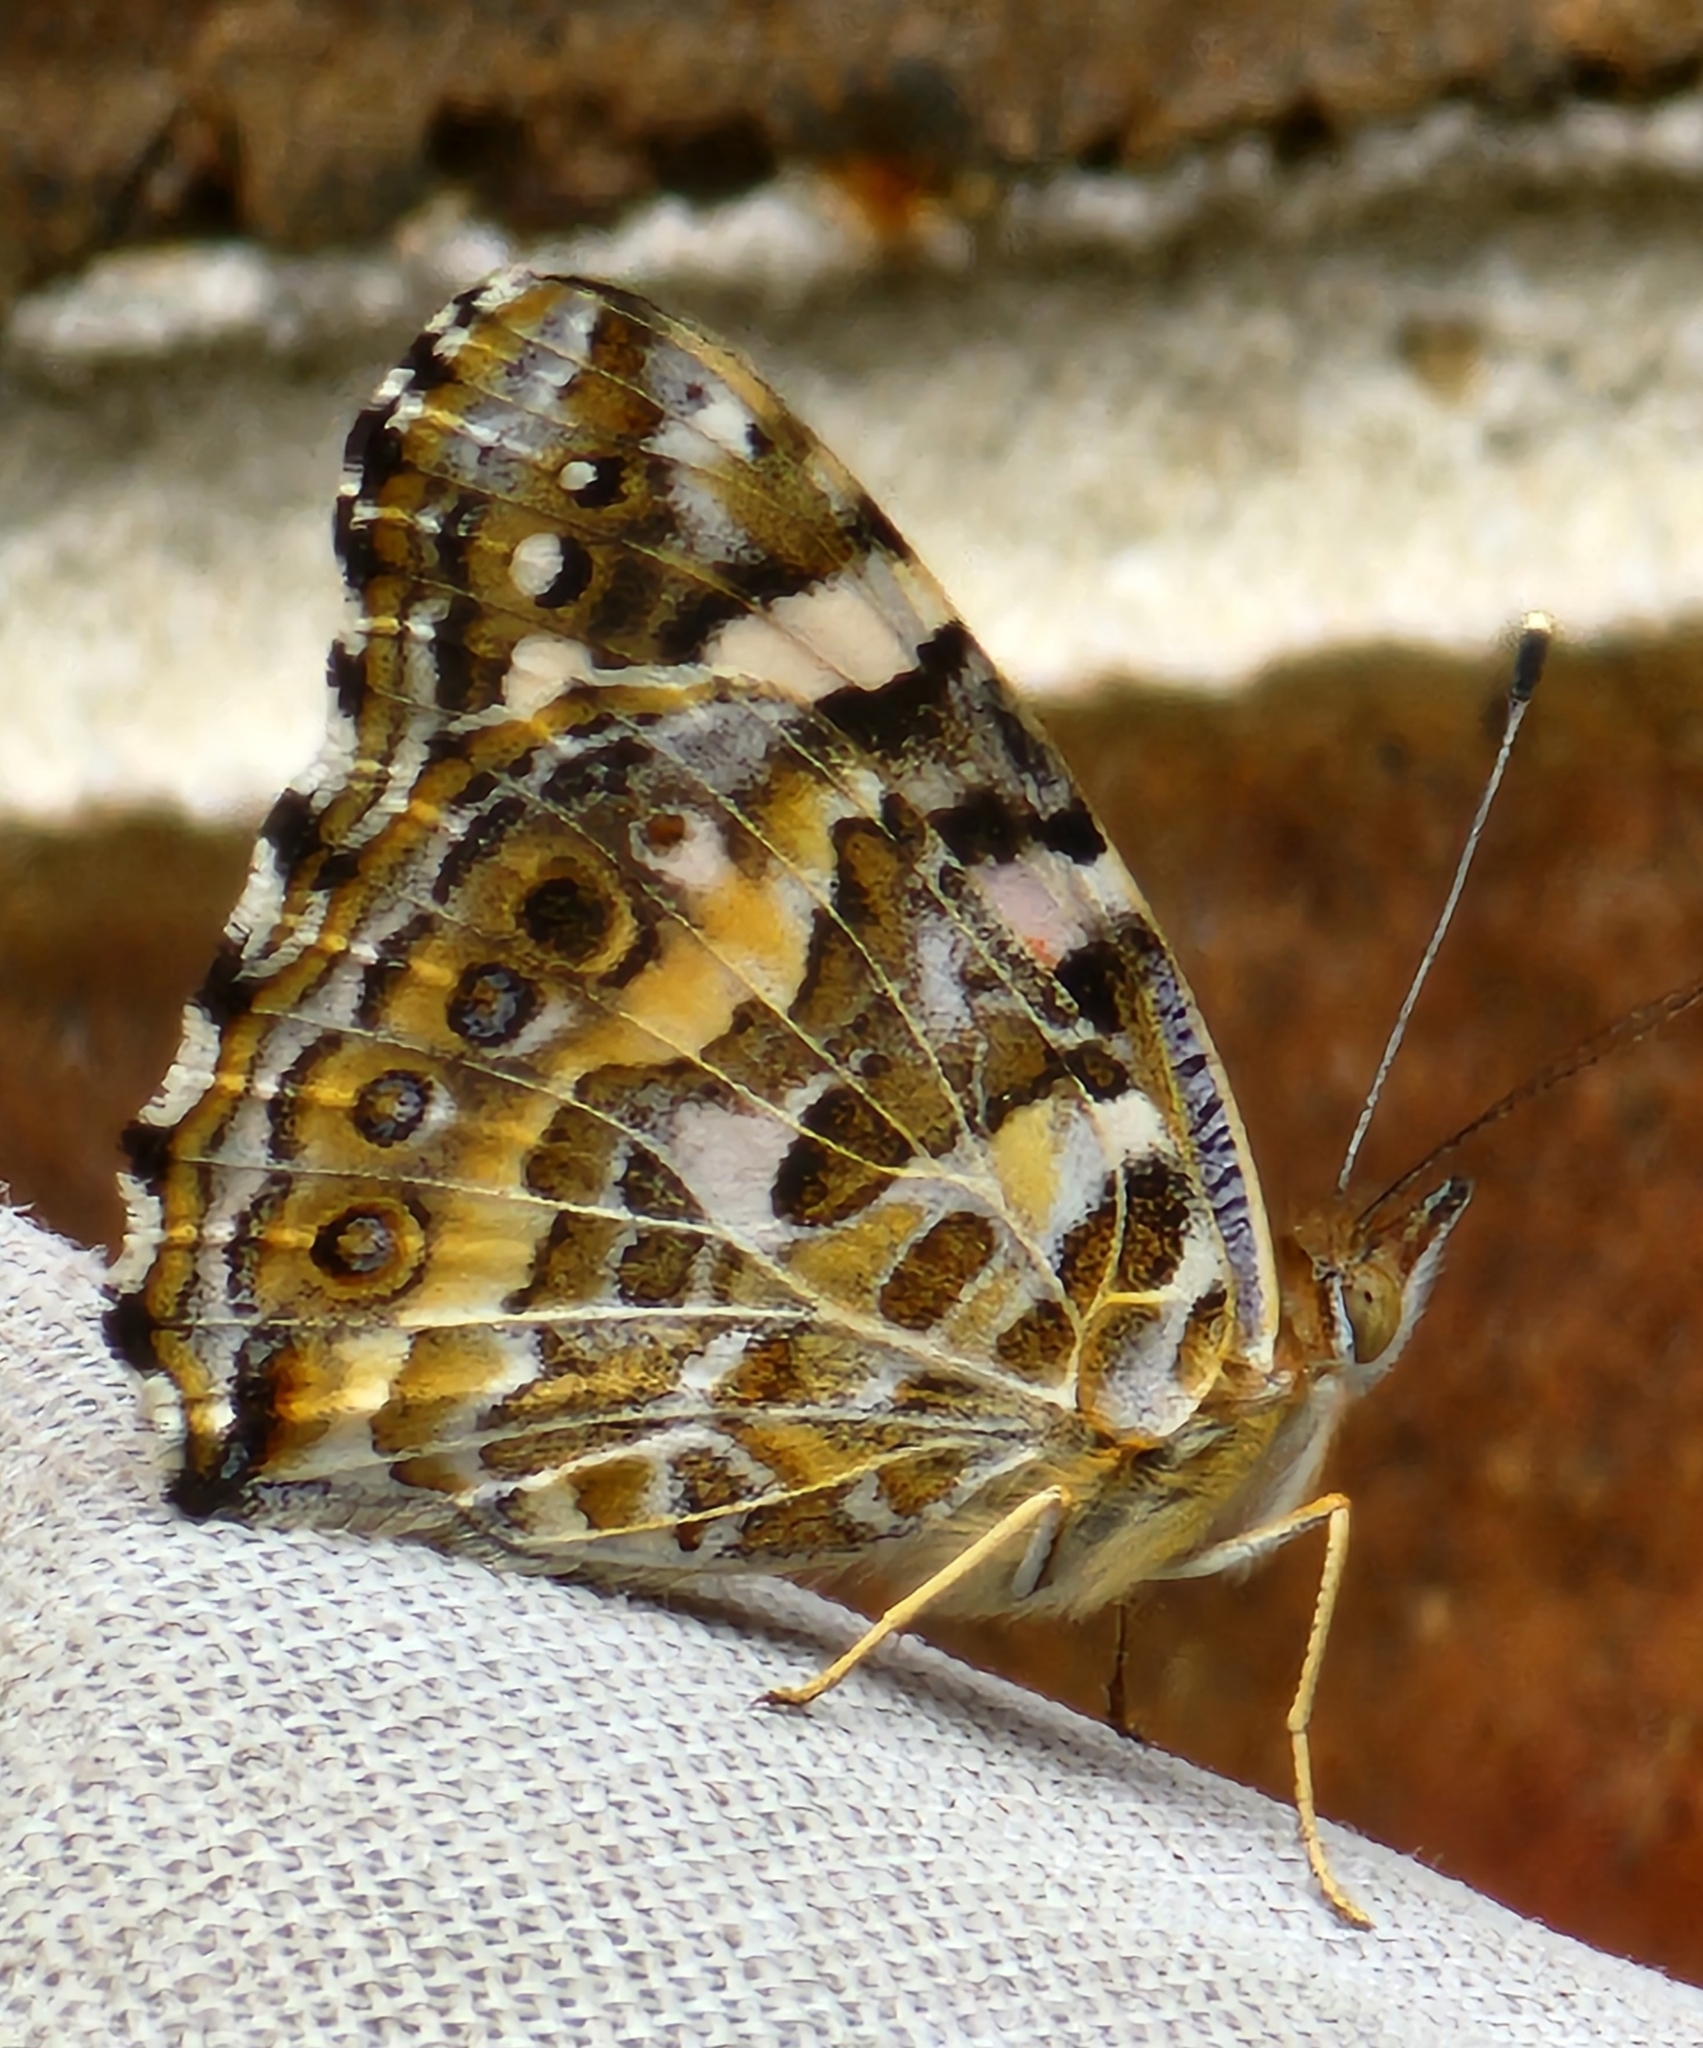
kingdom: Animalia
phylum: Arthropoda
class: Insecta
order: Lepidoptera
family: Nymphalidae
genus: Vanessa
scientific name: Vanessa kershawi
